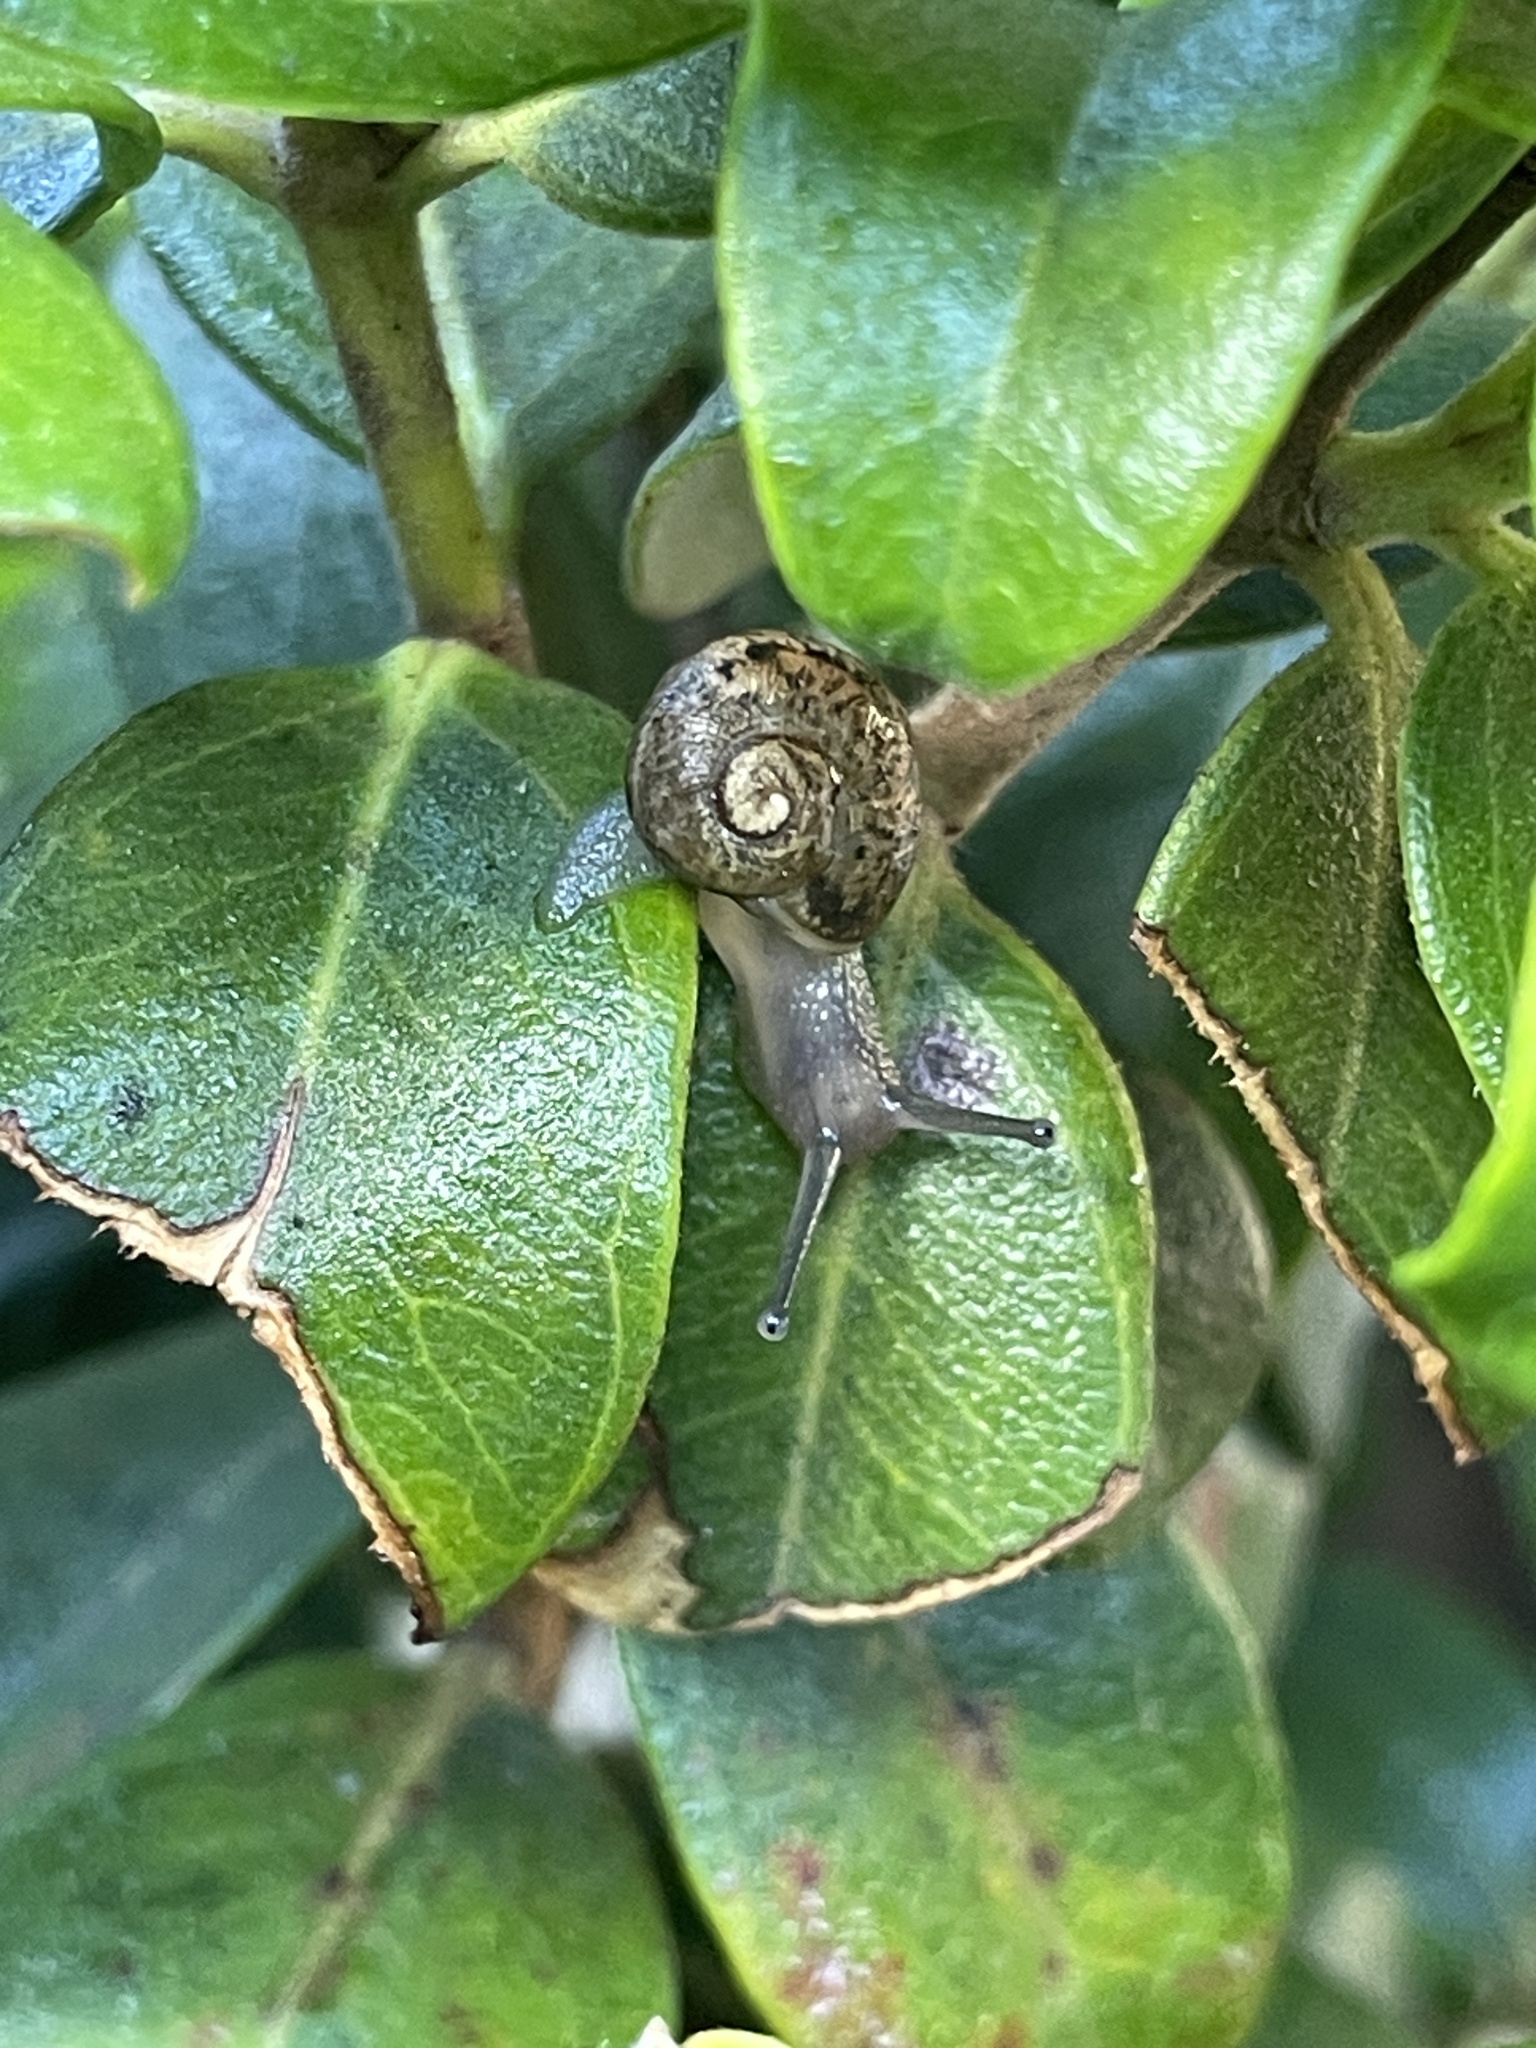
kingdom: Animalia
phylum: Mollusca
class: Gastropoda
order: Stylommatophora
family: Helicidae
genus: Cornu
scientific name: Cornu aspersum
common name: Brown garden snail
